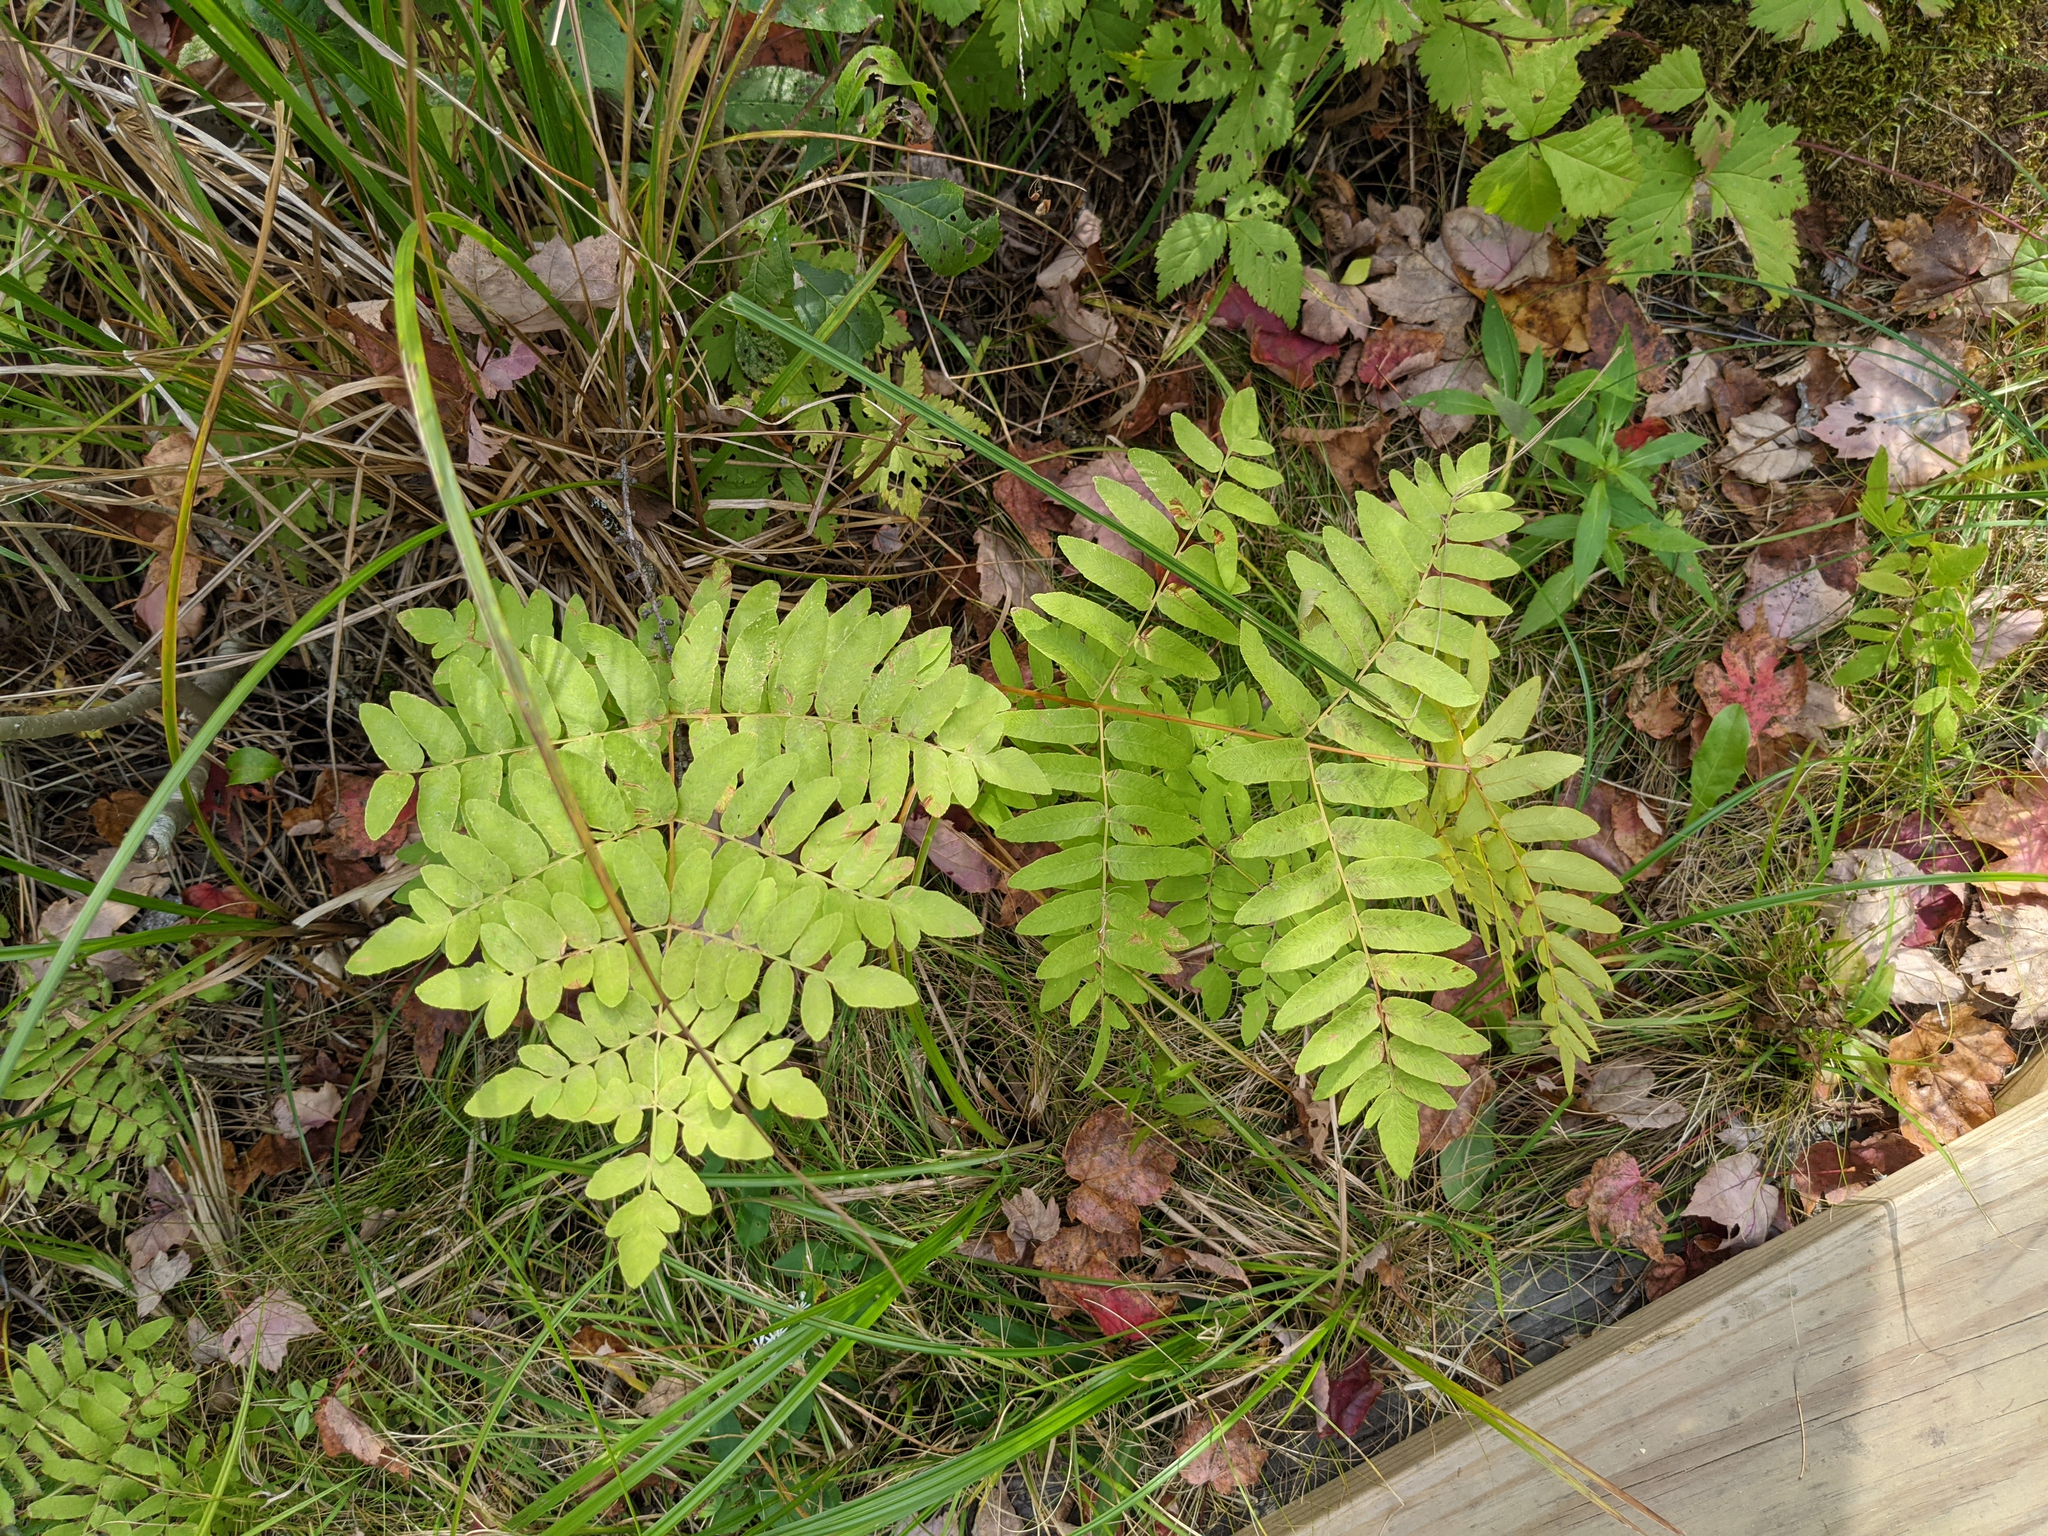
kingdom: Plantae
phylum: Tracheophyta
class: Polypodiopsida
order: Osmundales
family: Osmundaceae
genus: Osmunda
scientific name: Osmunda spectabilis
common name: American royal fern
